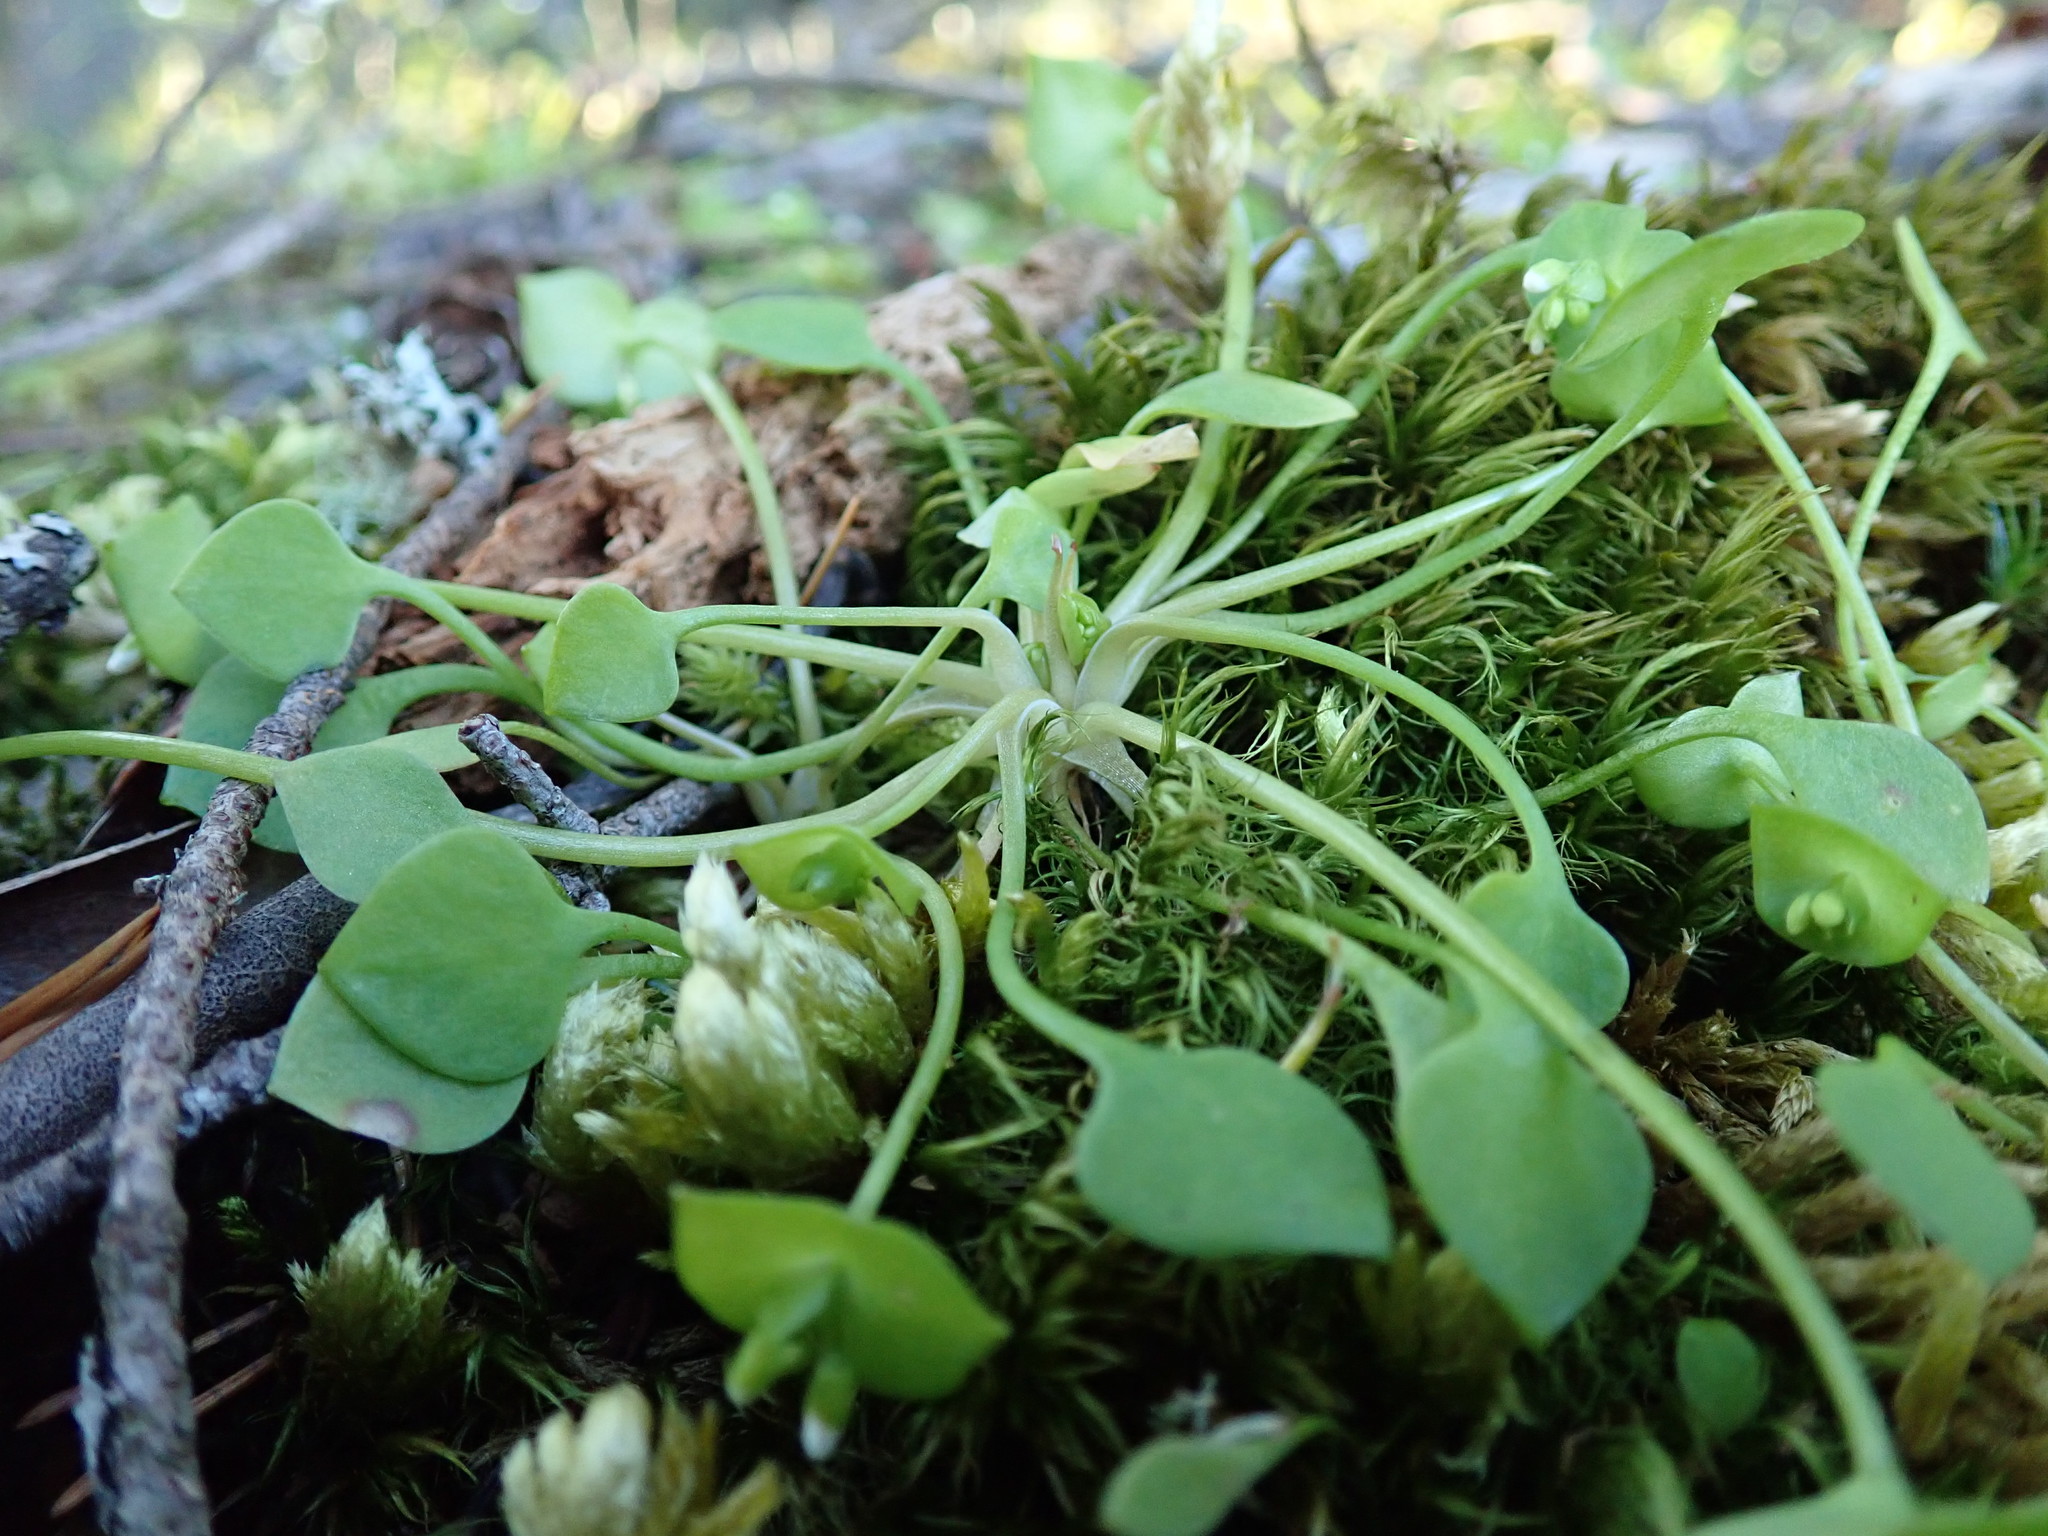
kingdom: Plantae
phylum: Tracheophyta
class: Magnoliopsida
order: Caryophyllales
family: Montiaceae
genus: Claytonia
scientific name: Claytonia perfoliata
